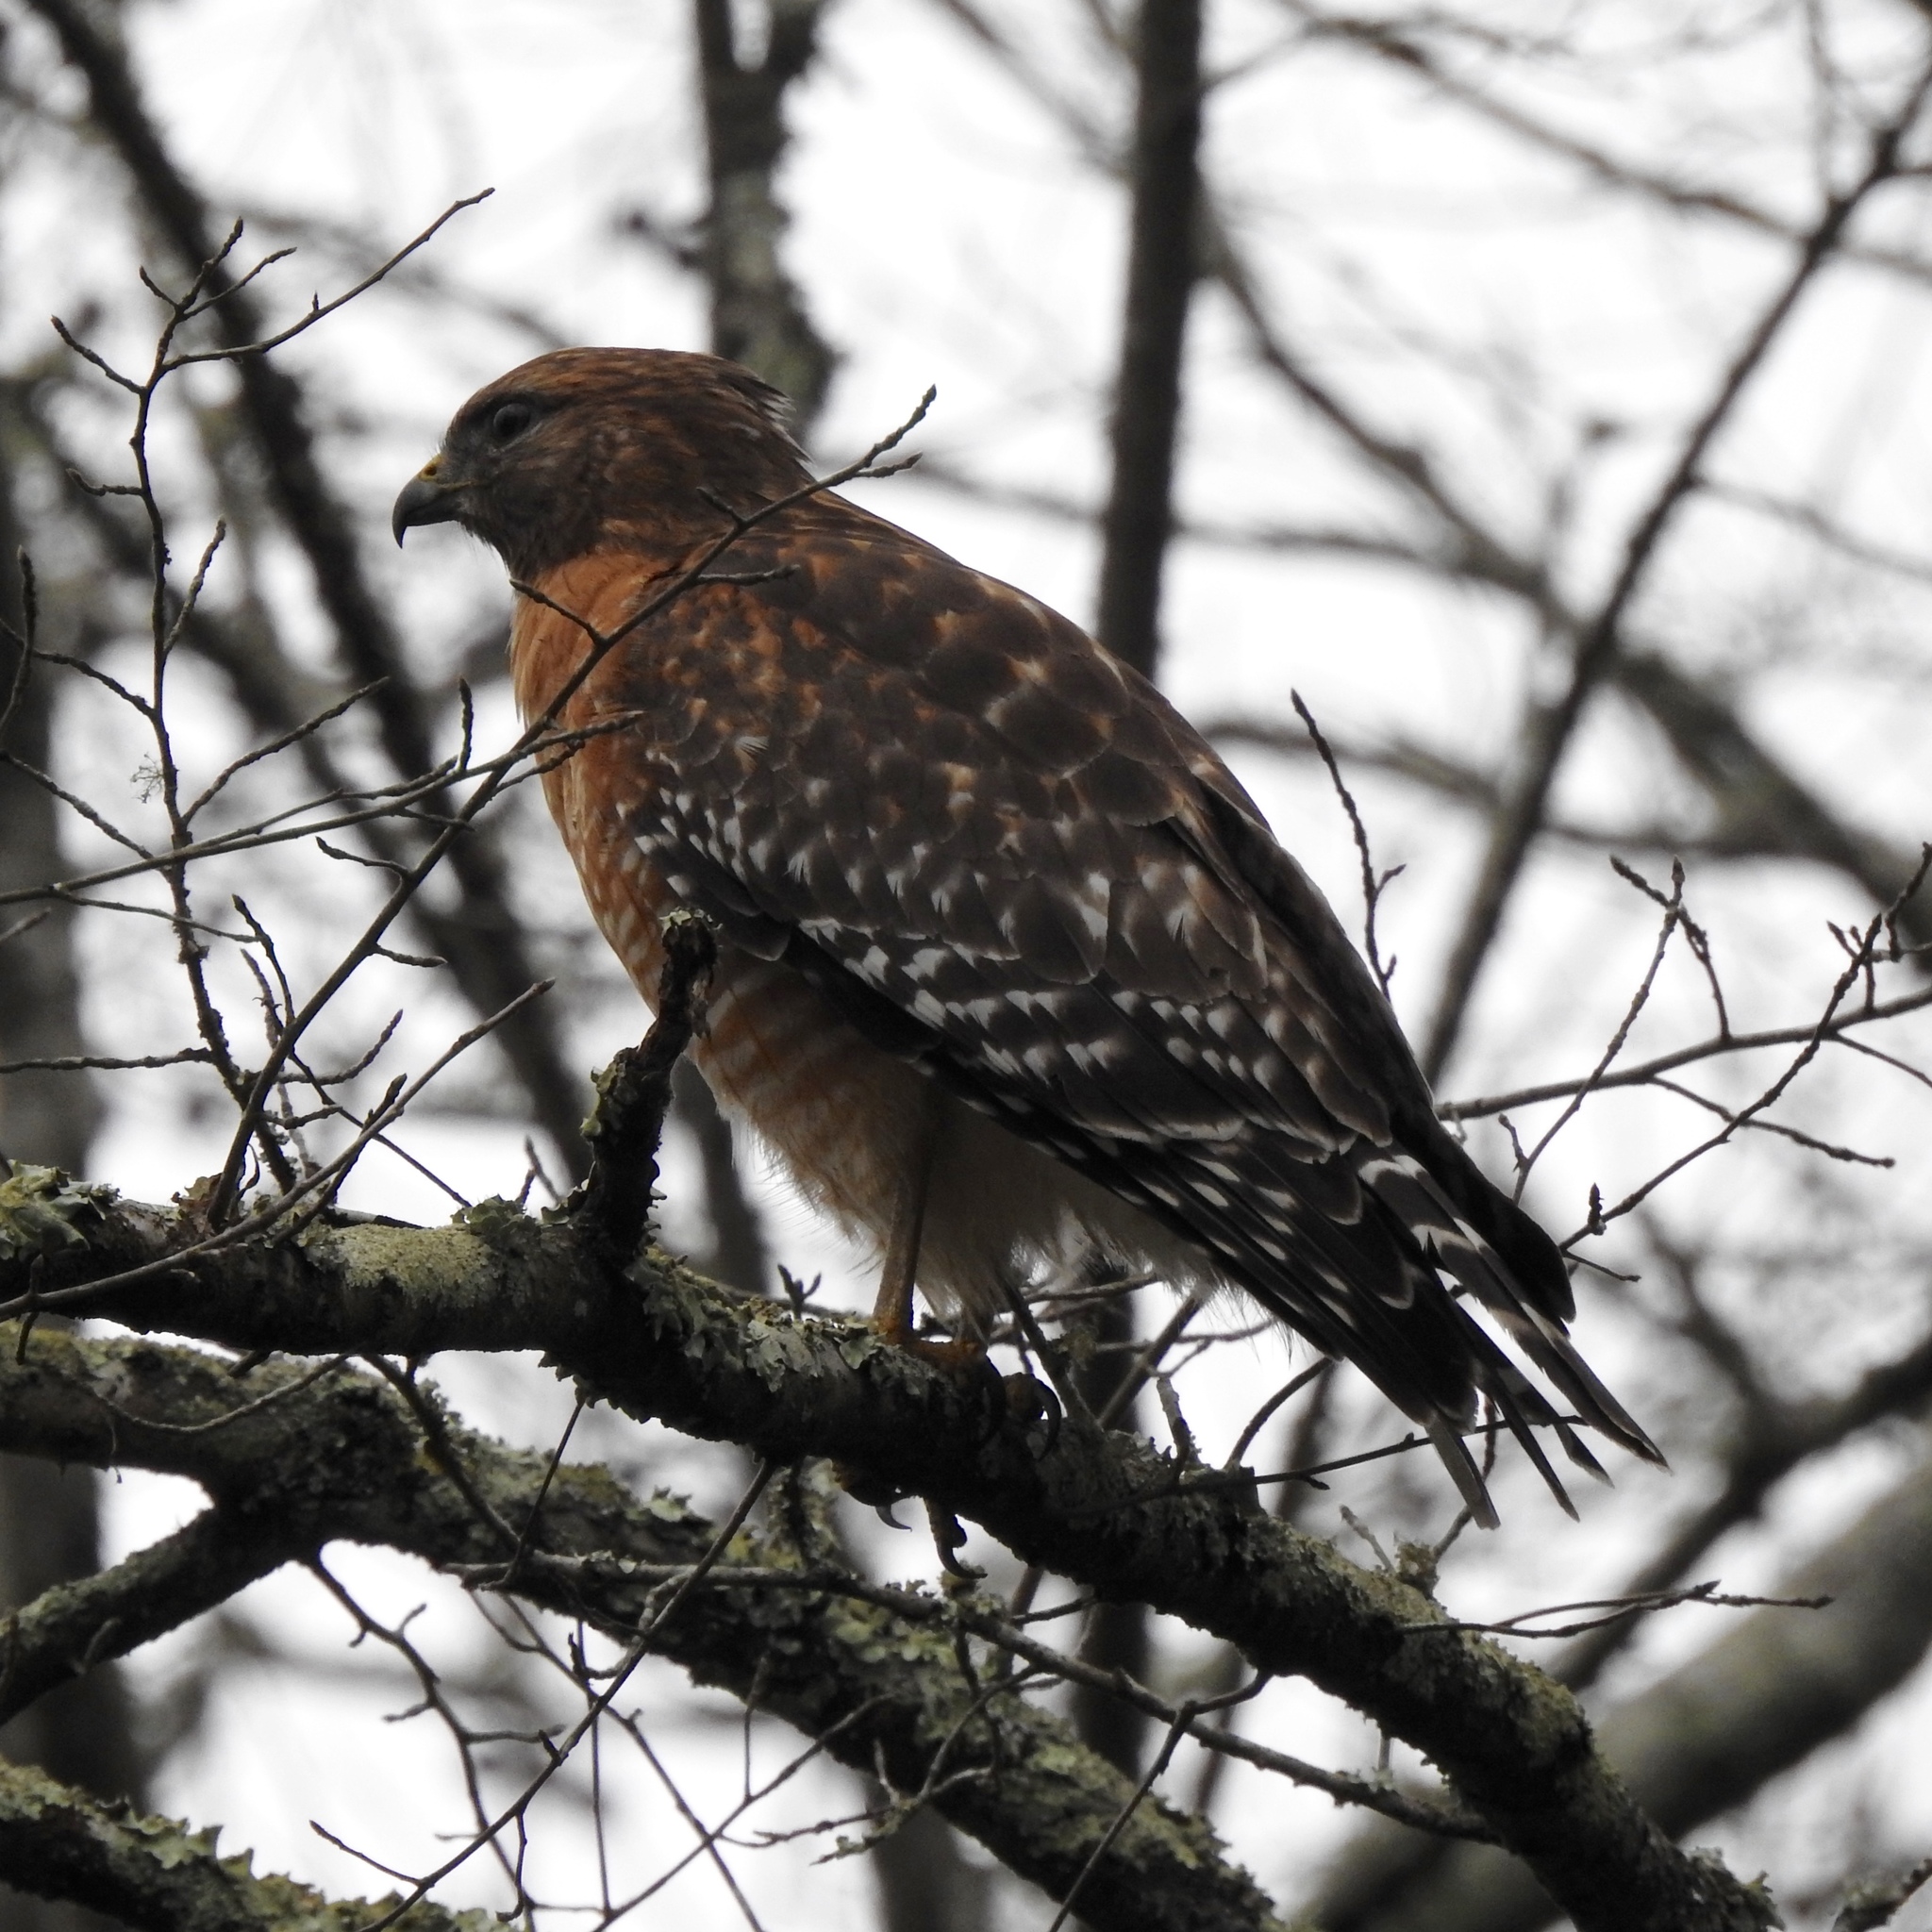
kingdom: Animalia
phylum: Chordata
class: Aves
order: Accipitriformes
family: Accipitridae
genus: Buteo
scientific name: Buteo lineatus
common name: Red-shouldered hawk
